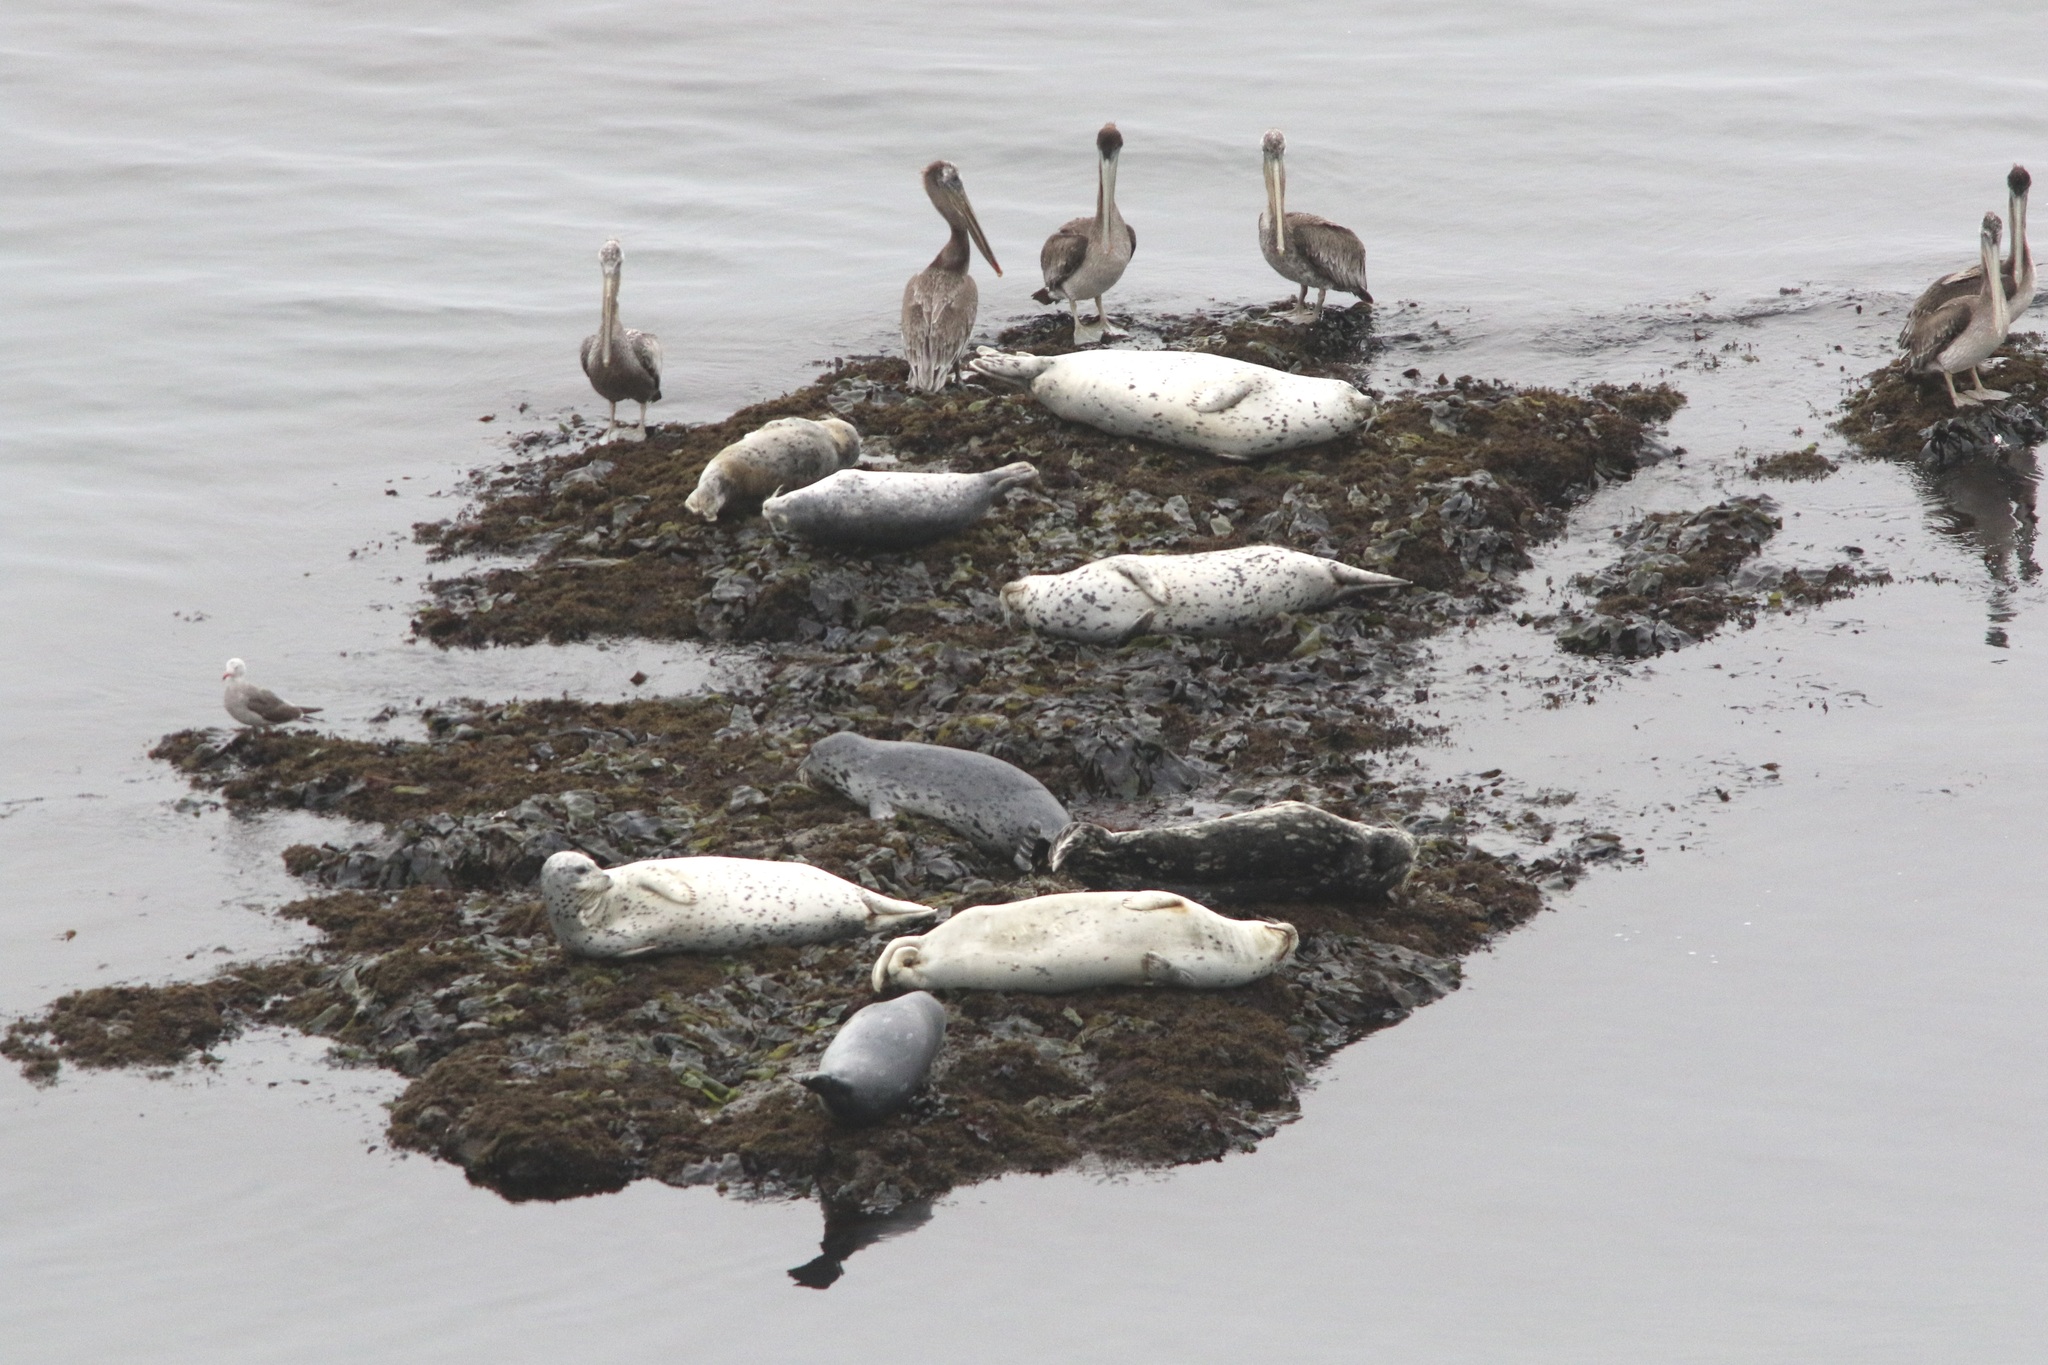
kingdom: Animalia
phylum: Chordata
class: Mammalia
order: Carnivora
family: Phocidae
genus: Phoca
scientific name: Phoca vitulina
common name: Harbor seal
